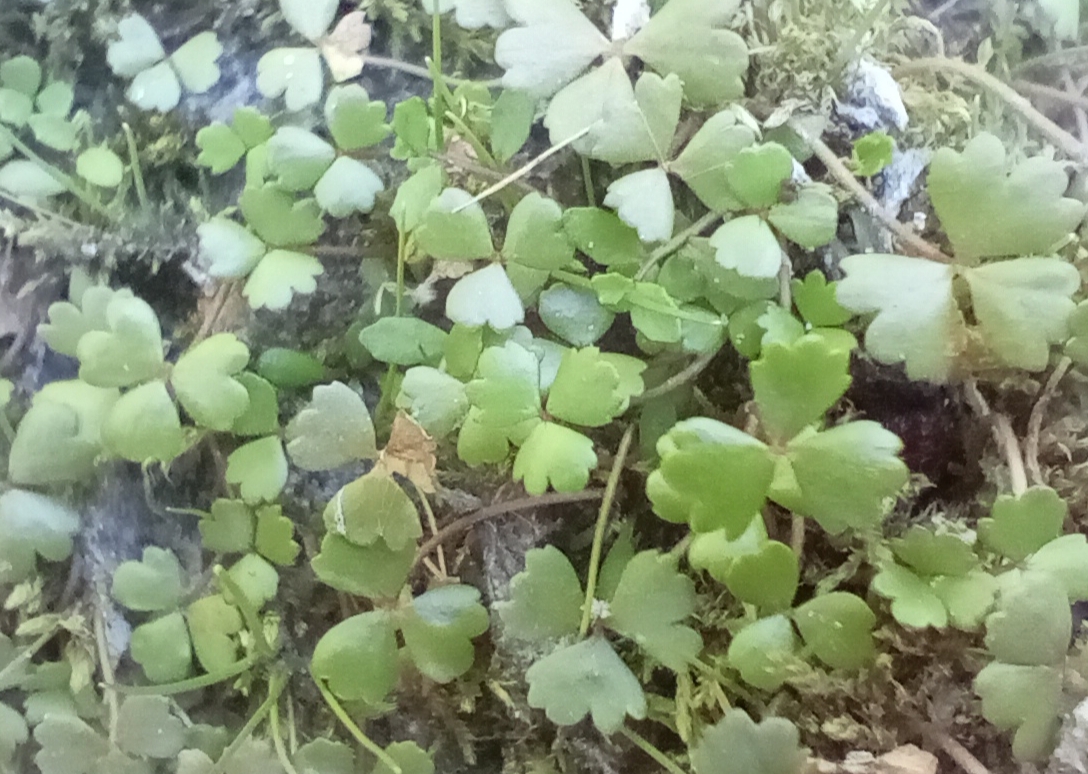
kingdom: Plantae
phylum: Tracheophyta
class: Magnoliopsida
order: Apiales
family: Araliaceae
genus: Hydrocotyle
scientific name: Hydrocotyle sulcata
